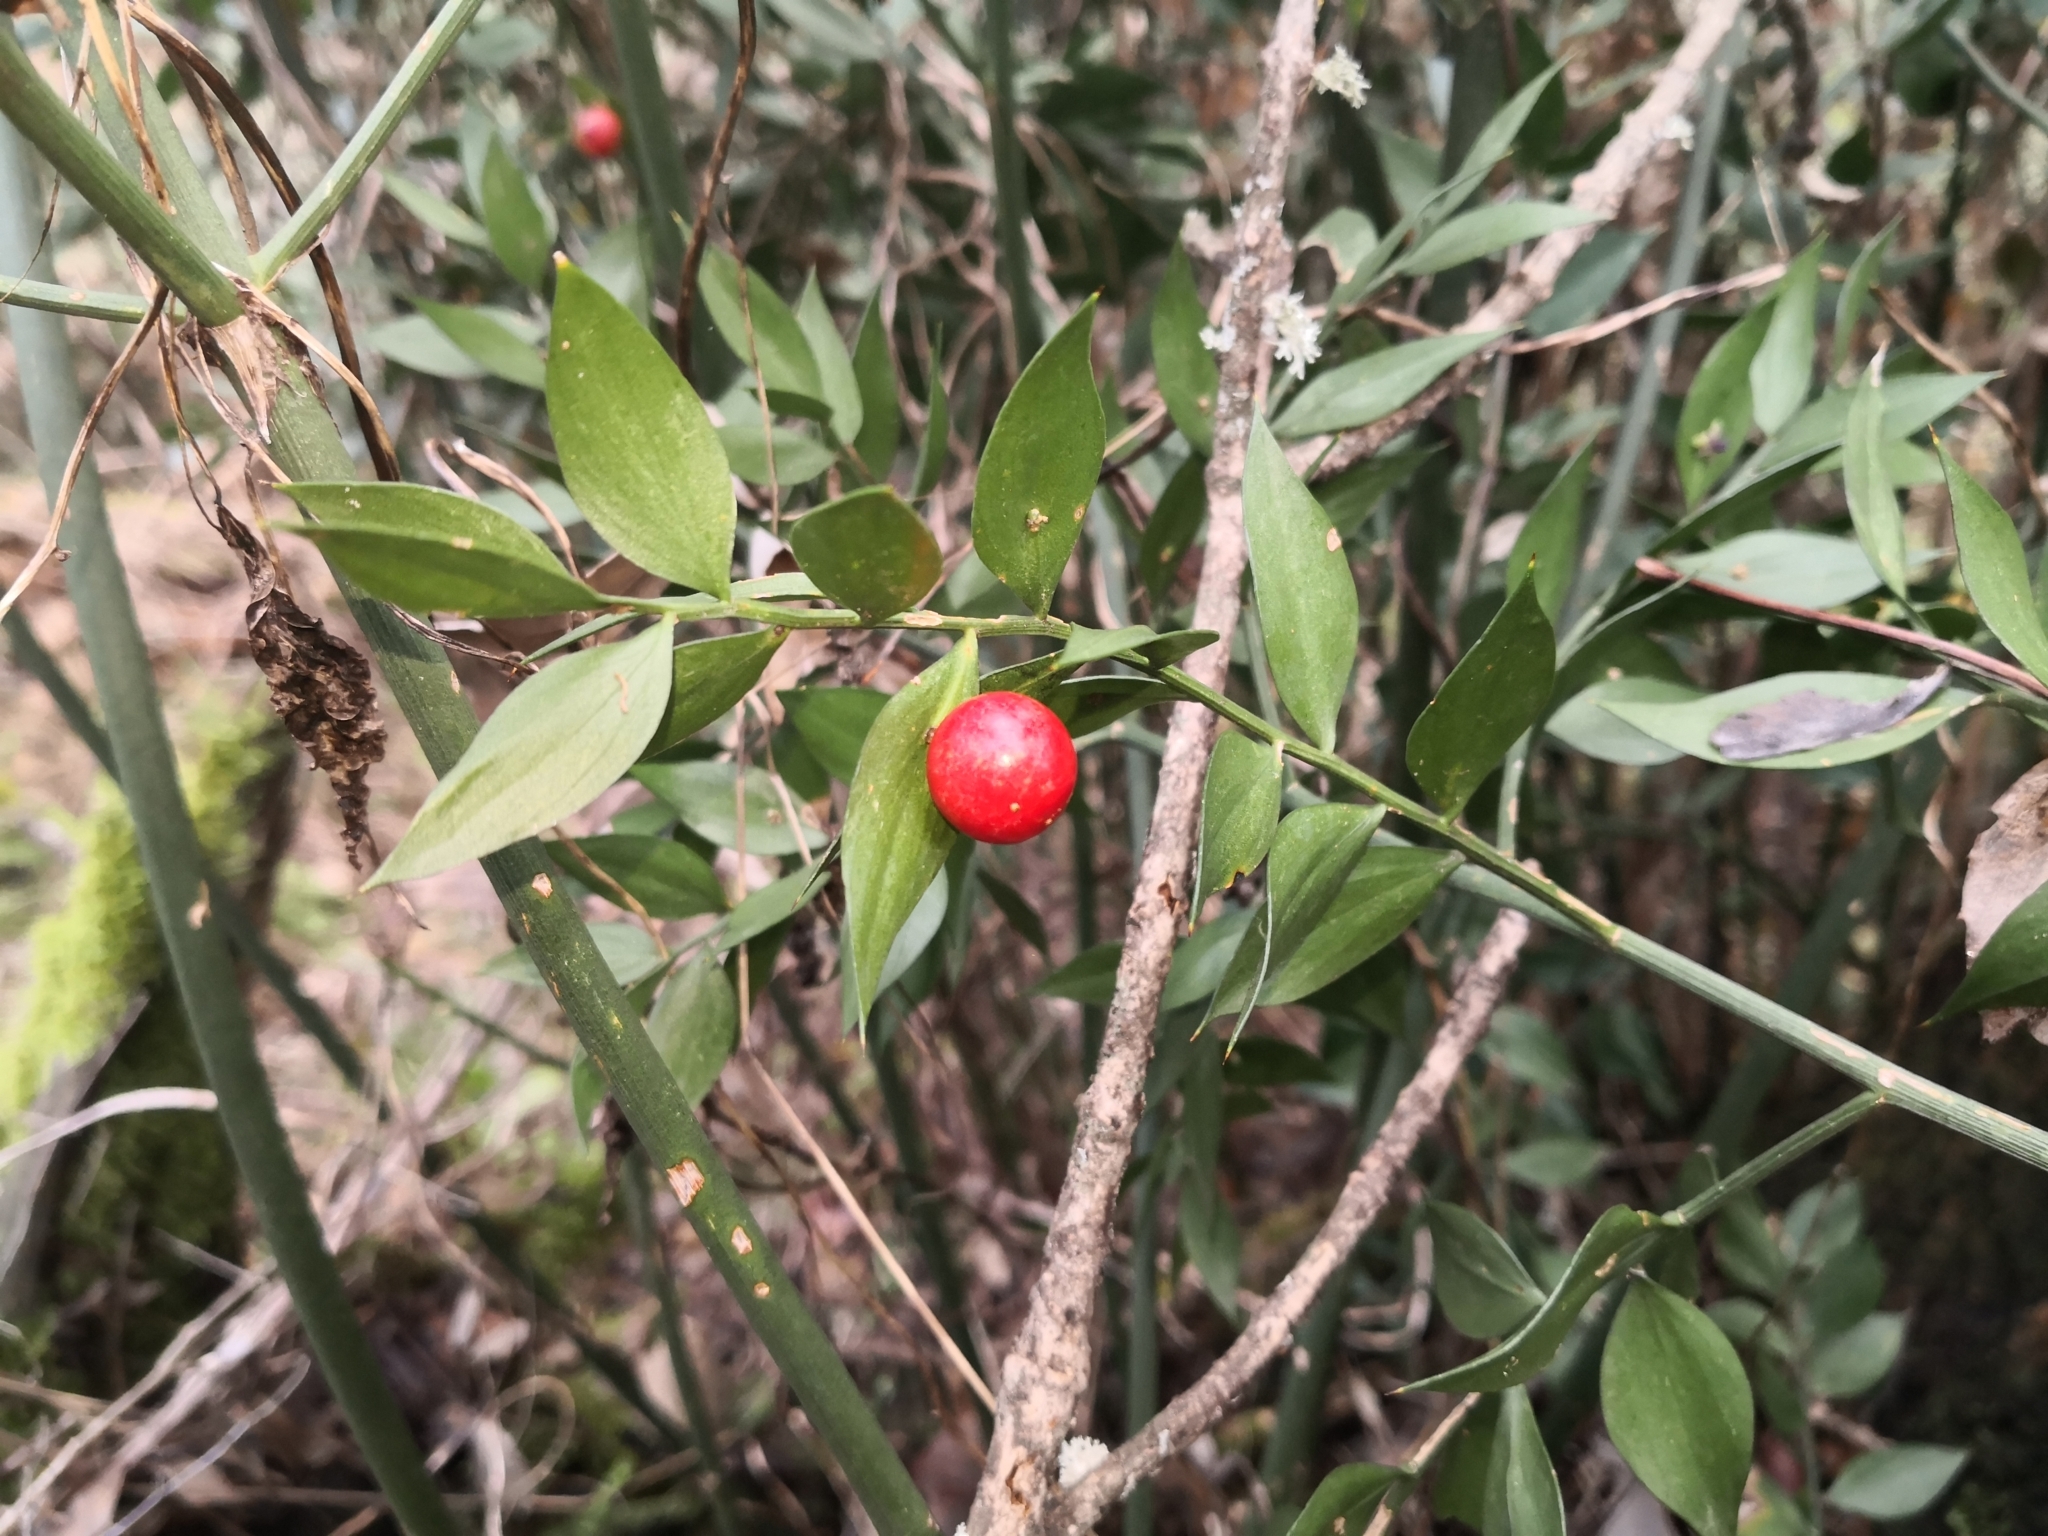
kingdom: Plantae
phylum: Tracheophyta
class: Liliopsida
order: Asparagales
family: Asparagaceae
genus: Ruscus
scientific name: Ruscus aculeatus
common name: Butcher's-broom
